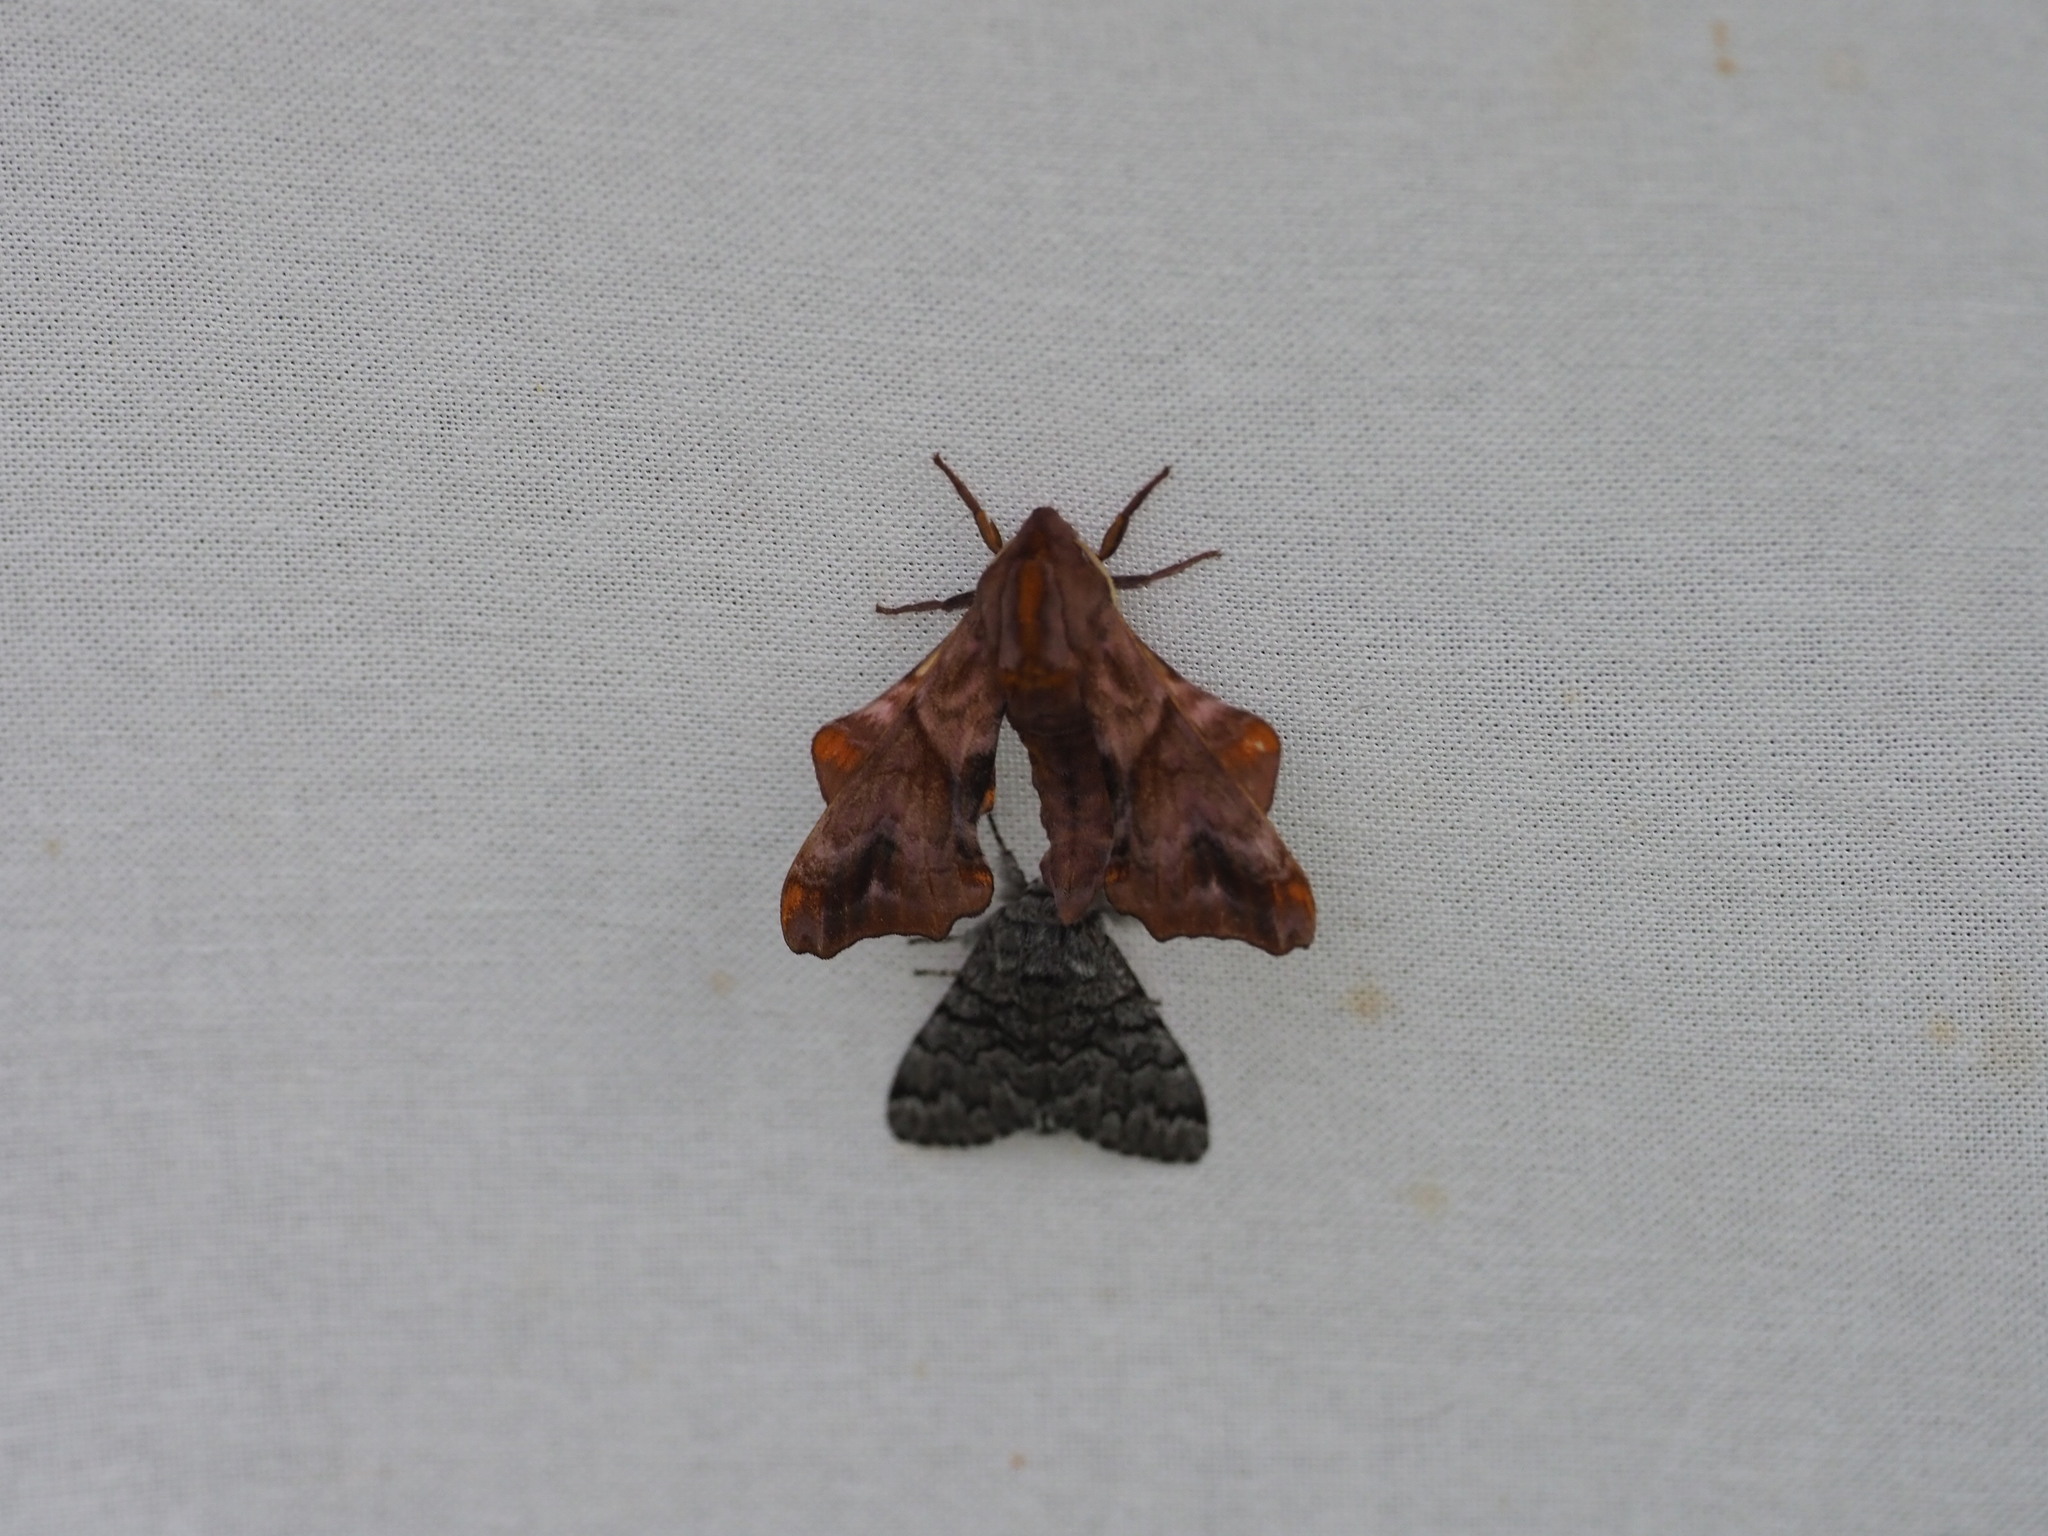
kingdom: Animalia
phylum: Arthropoda
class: Insecta
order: Lepidoptera
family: Sphingidae
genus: Paonias
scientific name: Paonias myops
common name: Small-eyed sphinx
